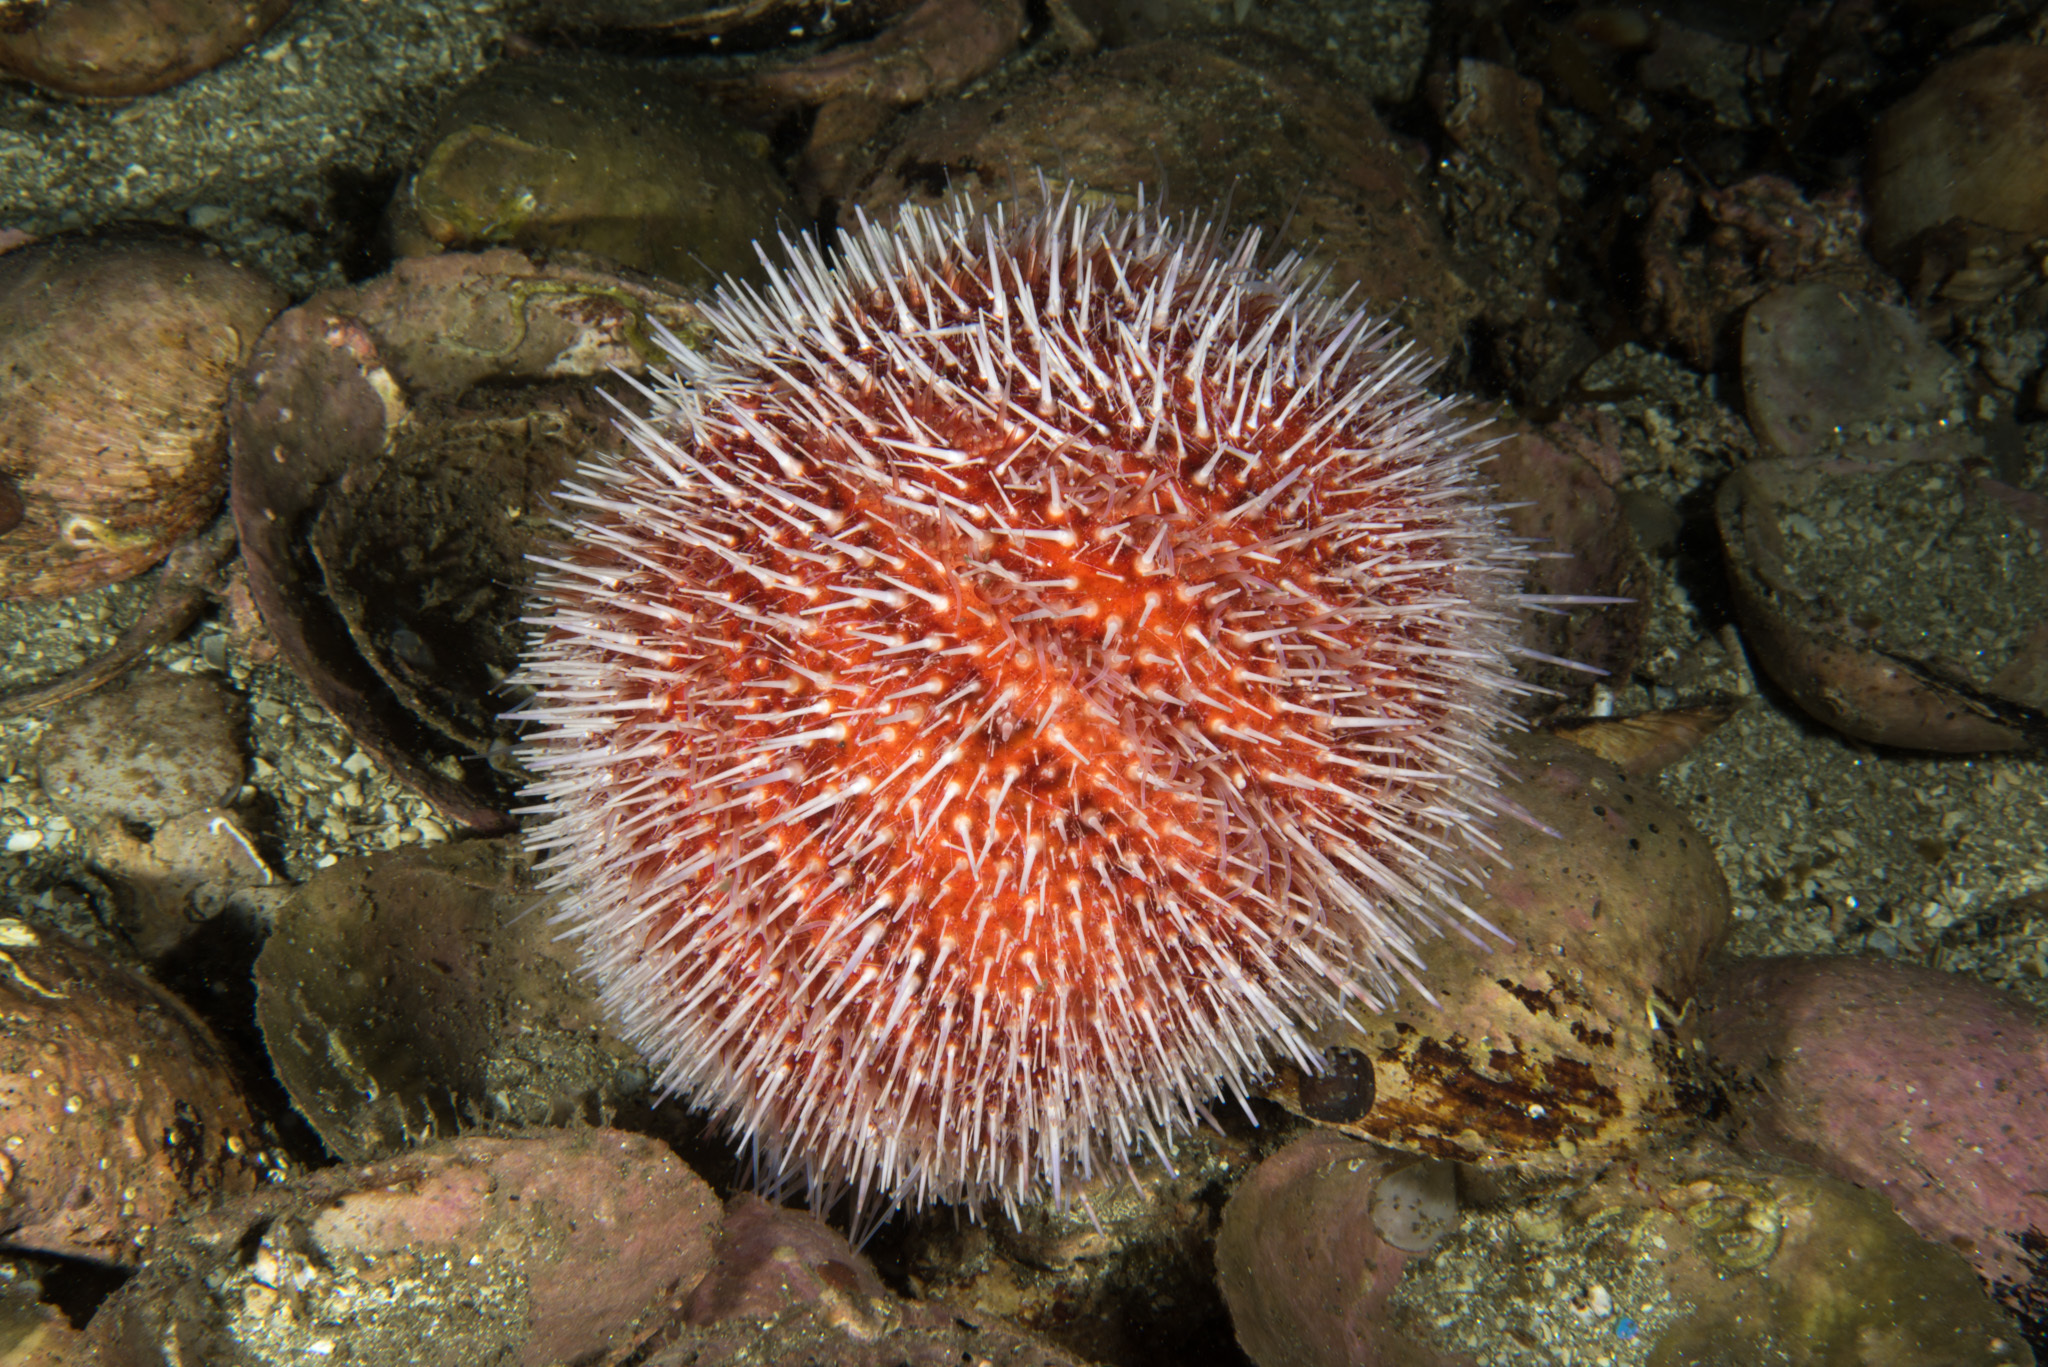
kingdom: Animalia
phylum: Echinodermata
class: Echinoidea
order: Camarodonta
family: Echinidae
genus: Echinus
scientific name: Echinus esculentus
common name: Edible sea urchin
